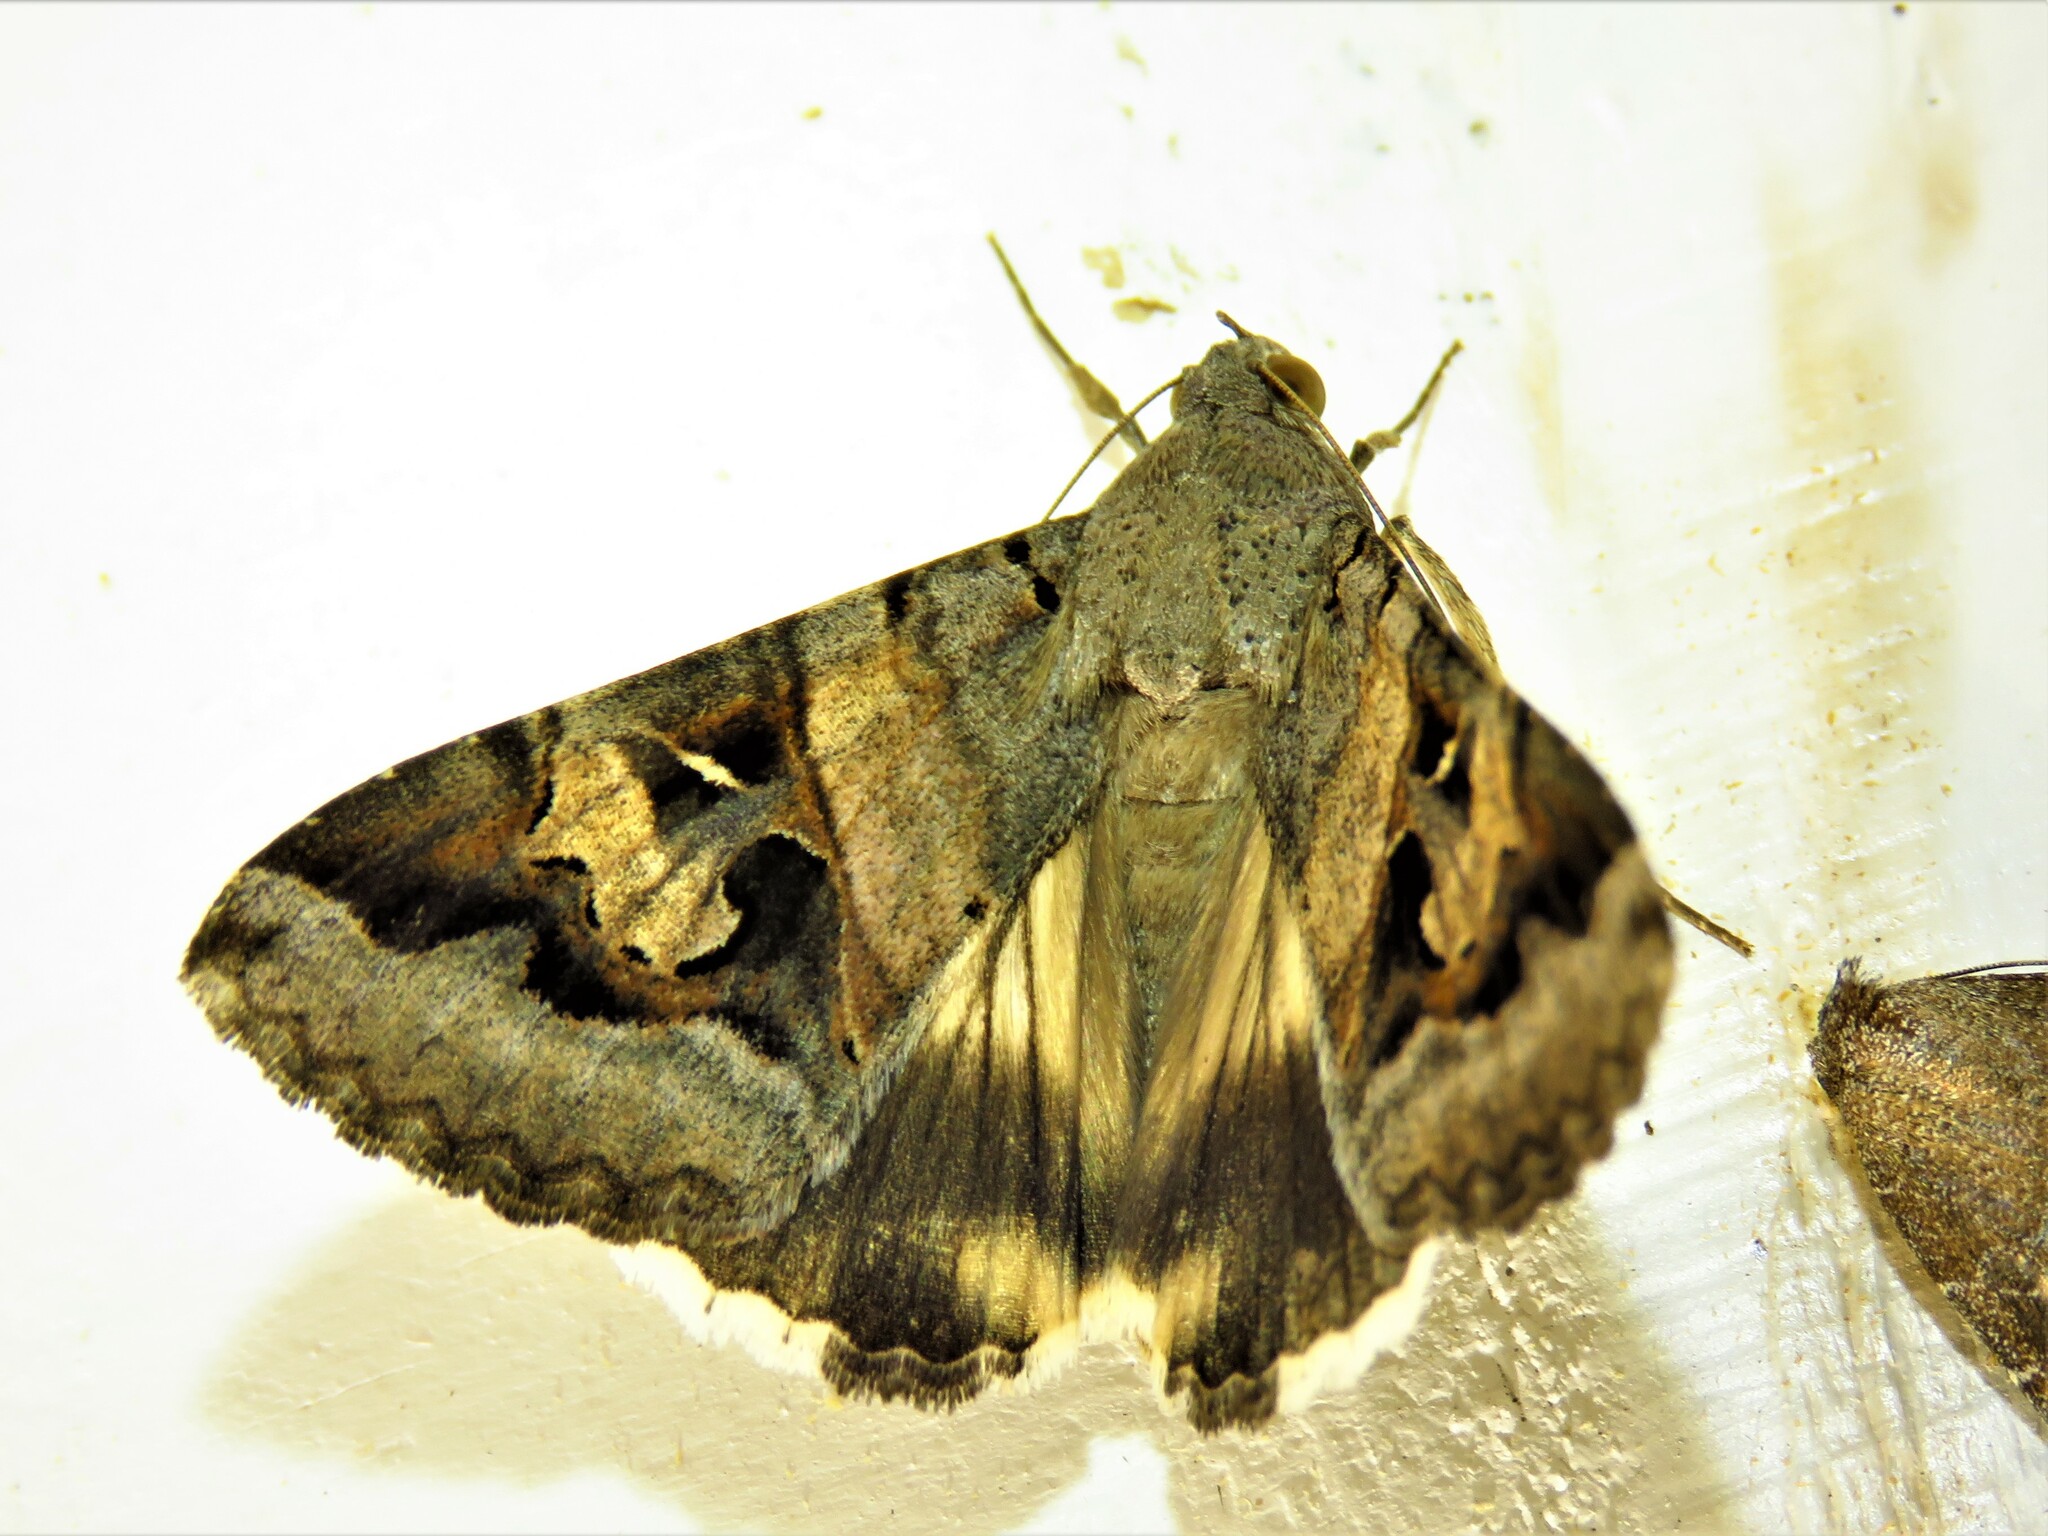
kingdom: Animalia
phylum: Arthropoda
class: Insecta
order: Lepidoptera
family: Erebidae
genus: Melipotis
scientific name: Melipotis indomita
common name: Moth
